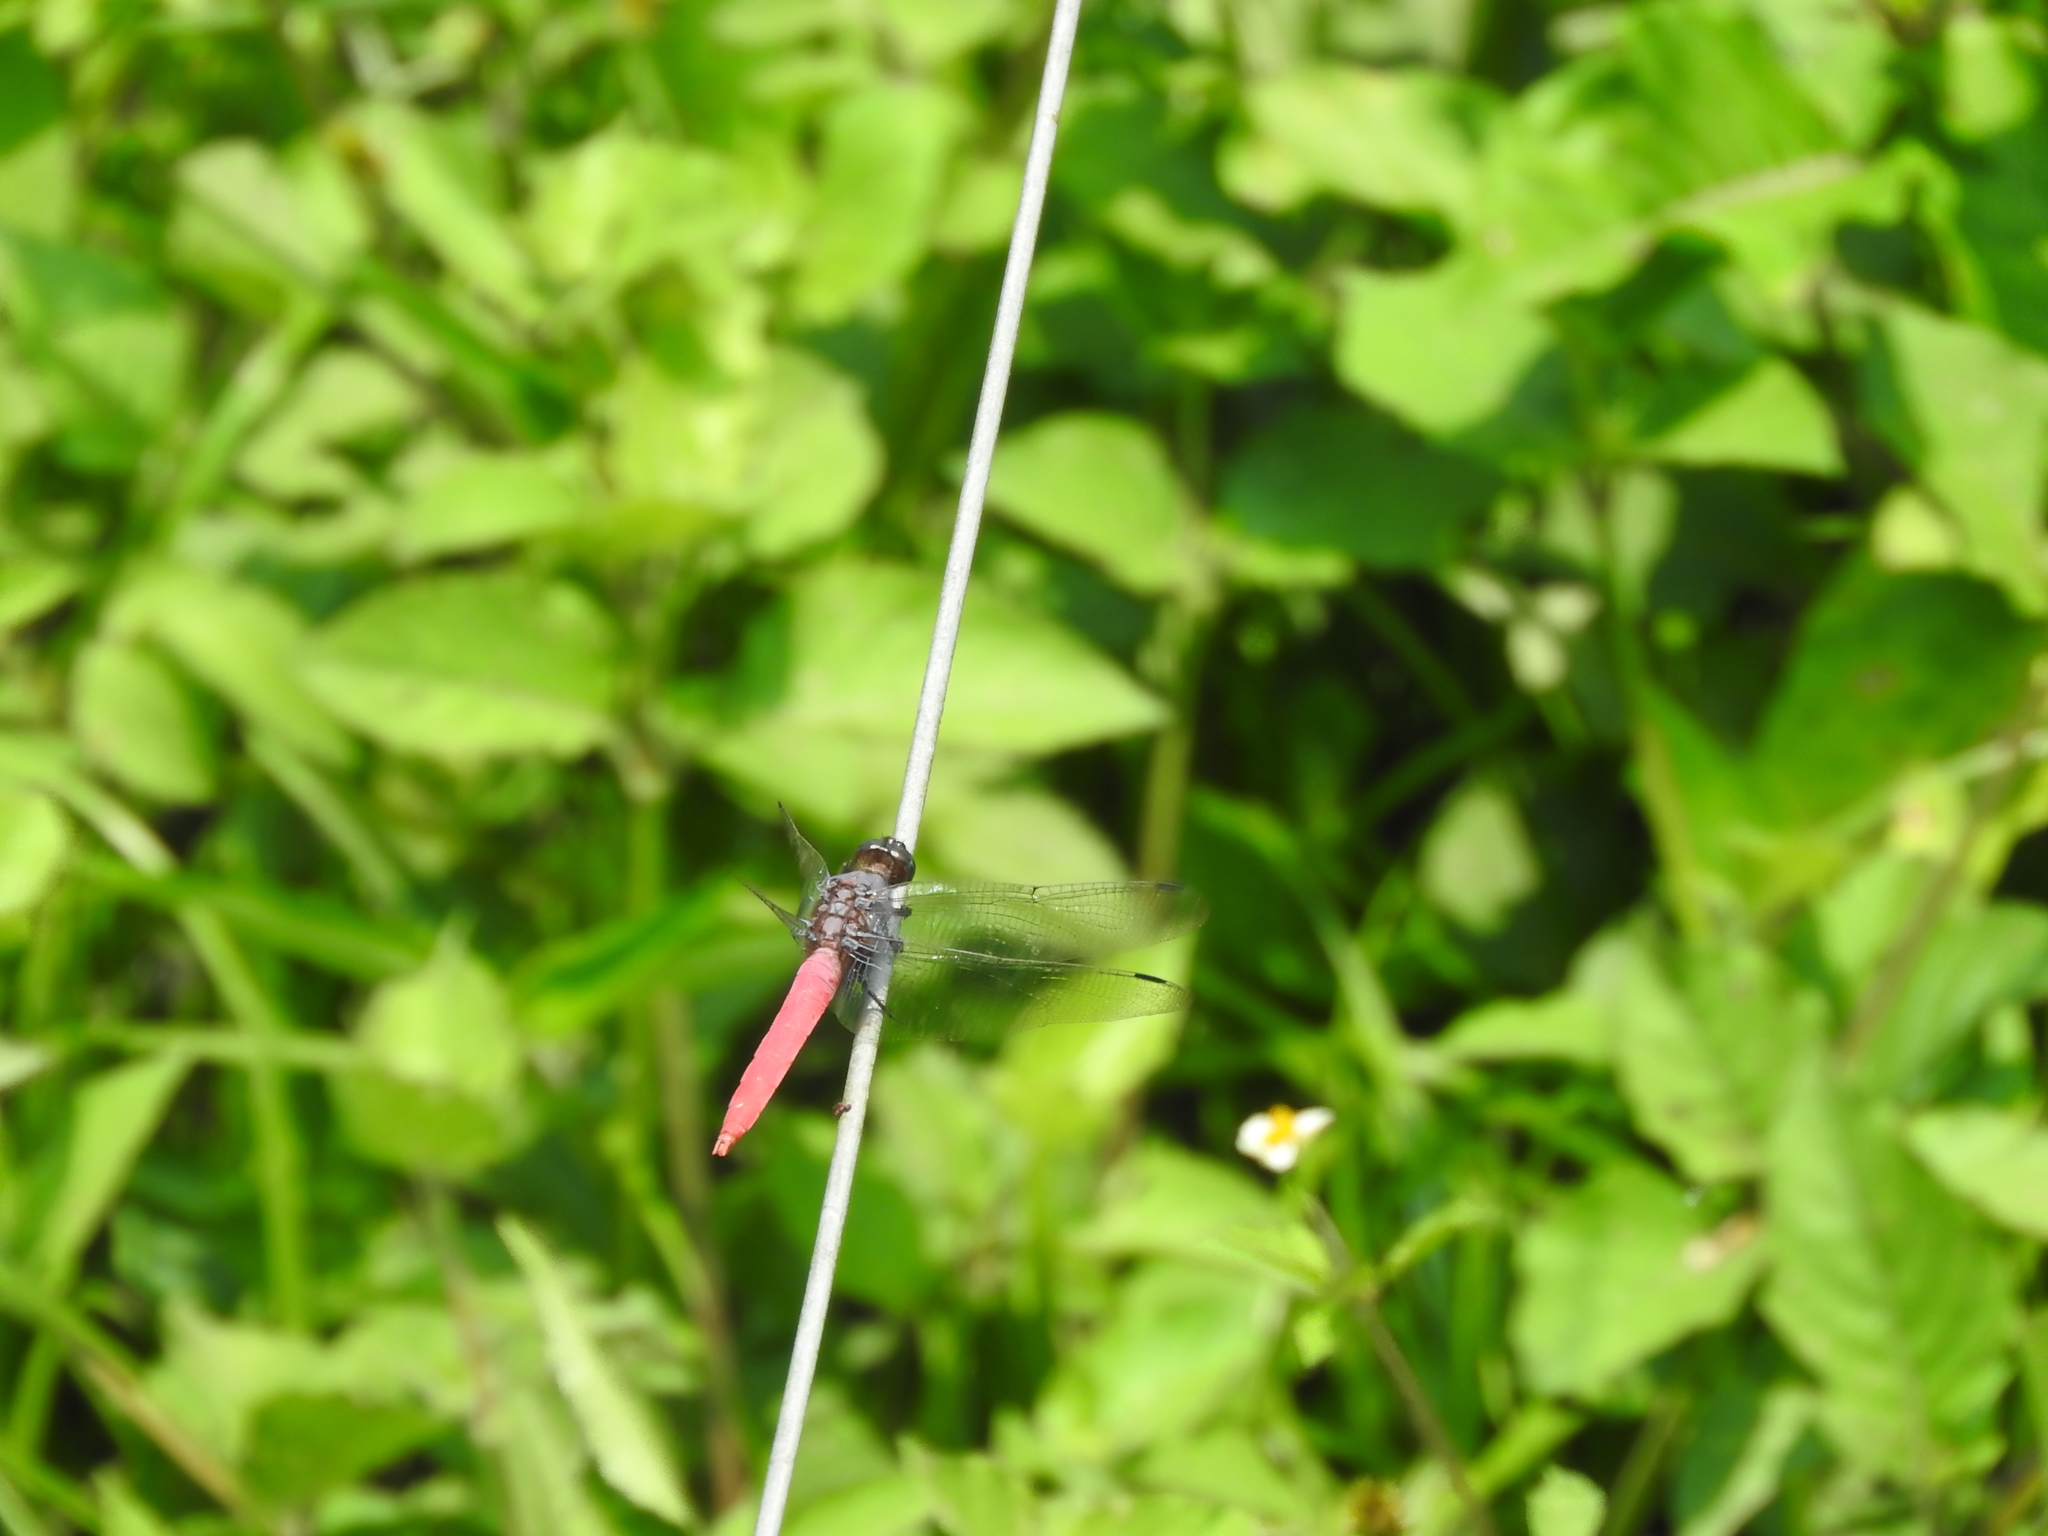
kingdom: Animalia
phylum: Arthropoda
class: Insecta
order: Odonata
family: Libellulidae
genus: Orthetrum
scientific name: Orthetrum pruinosum
